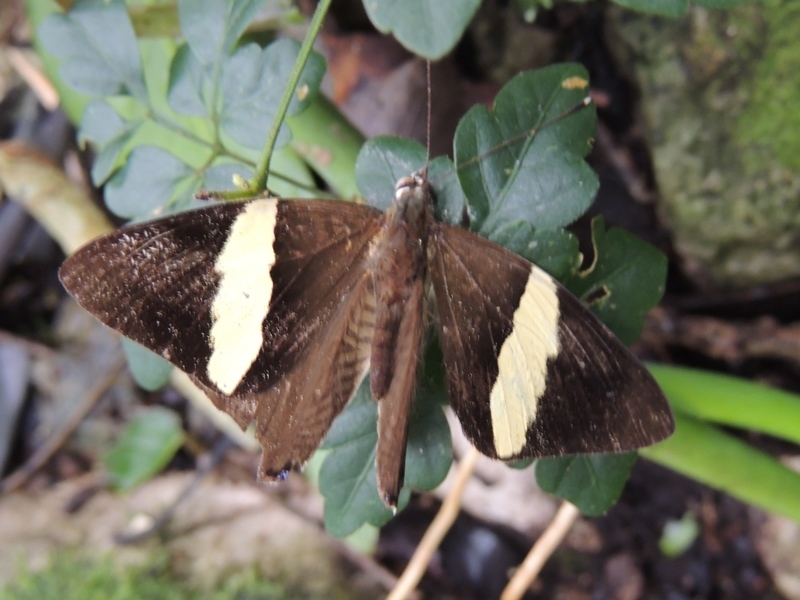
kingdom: Animalia
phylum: Arthropoda
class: Insecta
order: Lepidoptera
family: Nymphalidae
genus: Colobura
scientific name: Colobura dirce
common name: Dirce beauty
